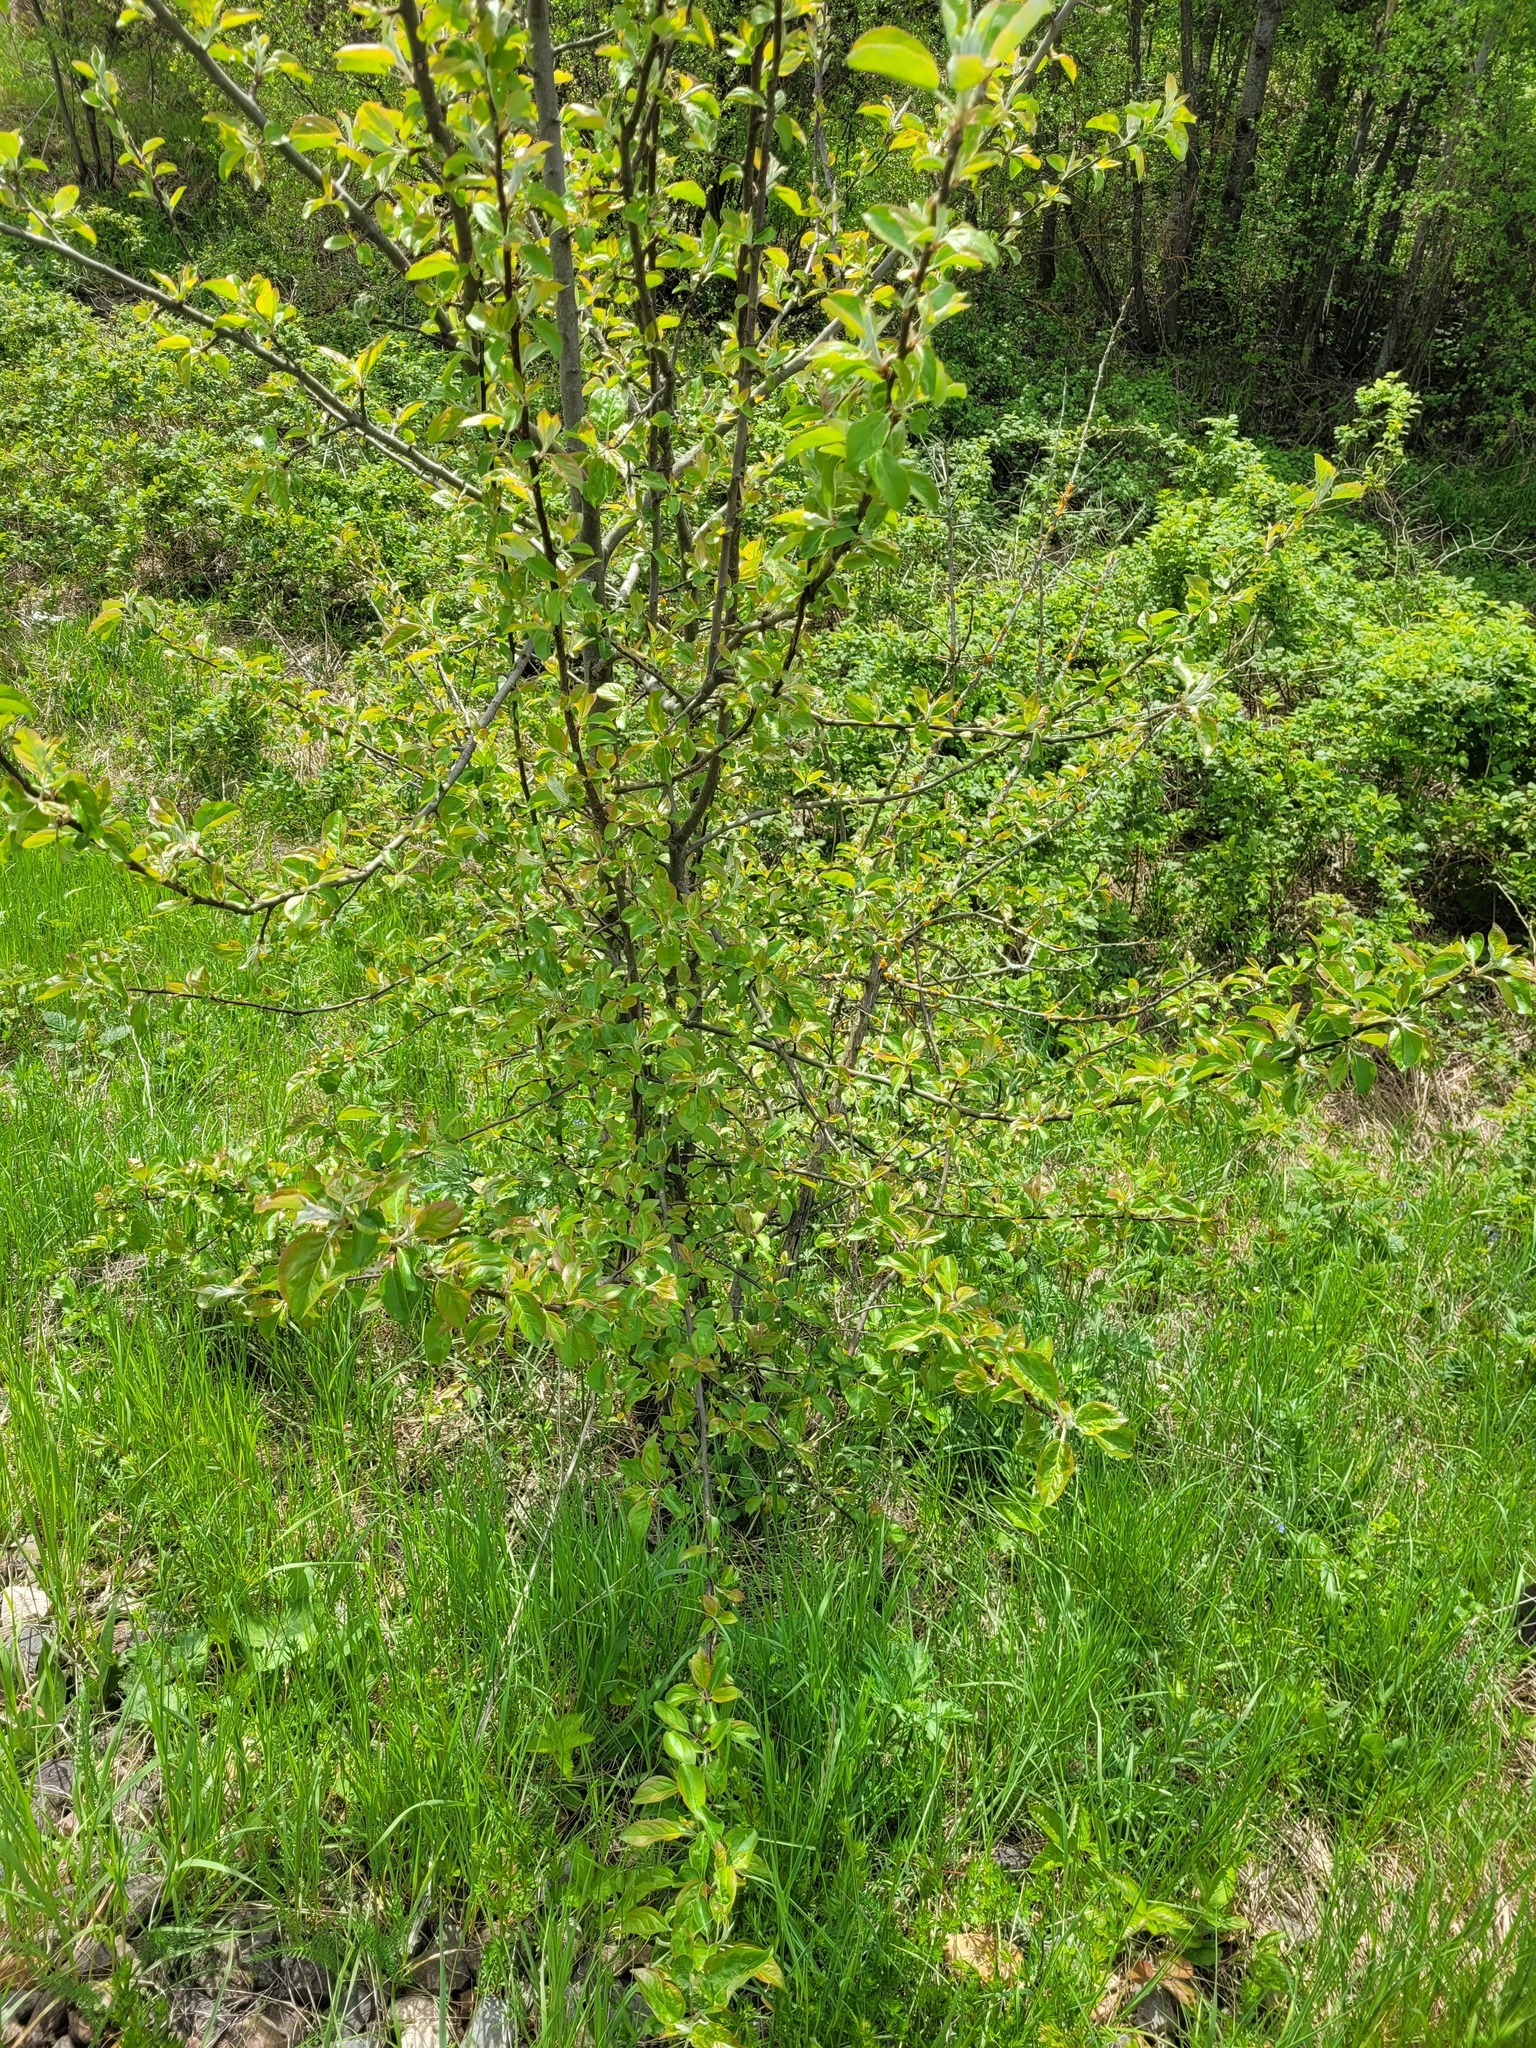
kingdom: Plantae
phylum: Tracheophyta
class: Magnoliopsida
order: Rosales
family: Rosaceae
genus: Malus
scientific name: Malus domestica
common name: Apple
